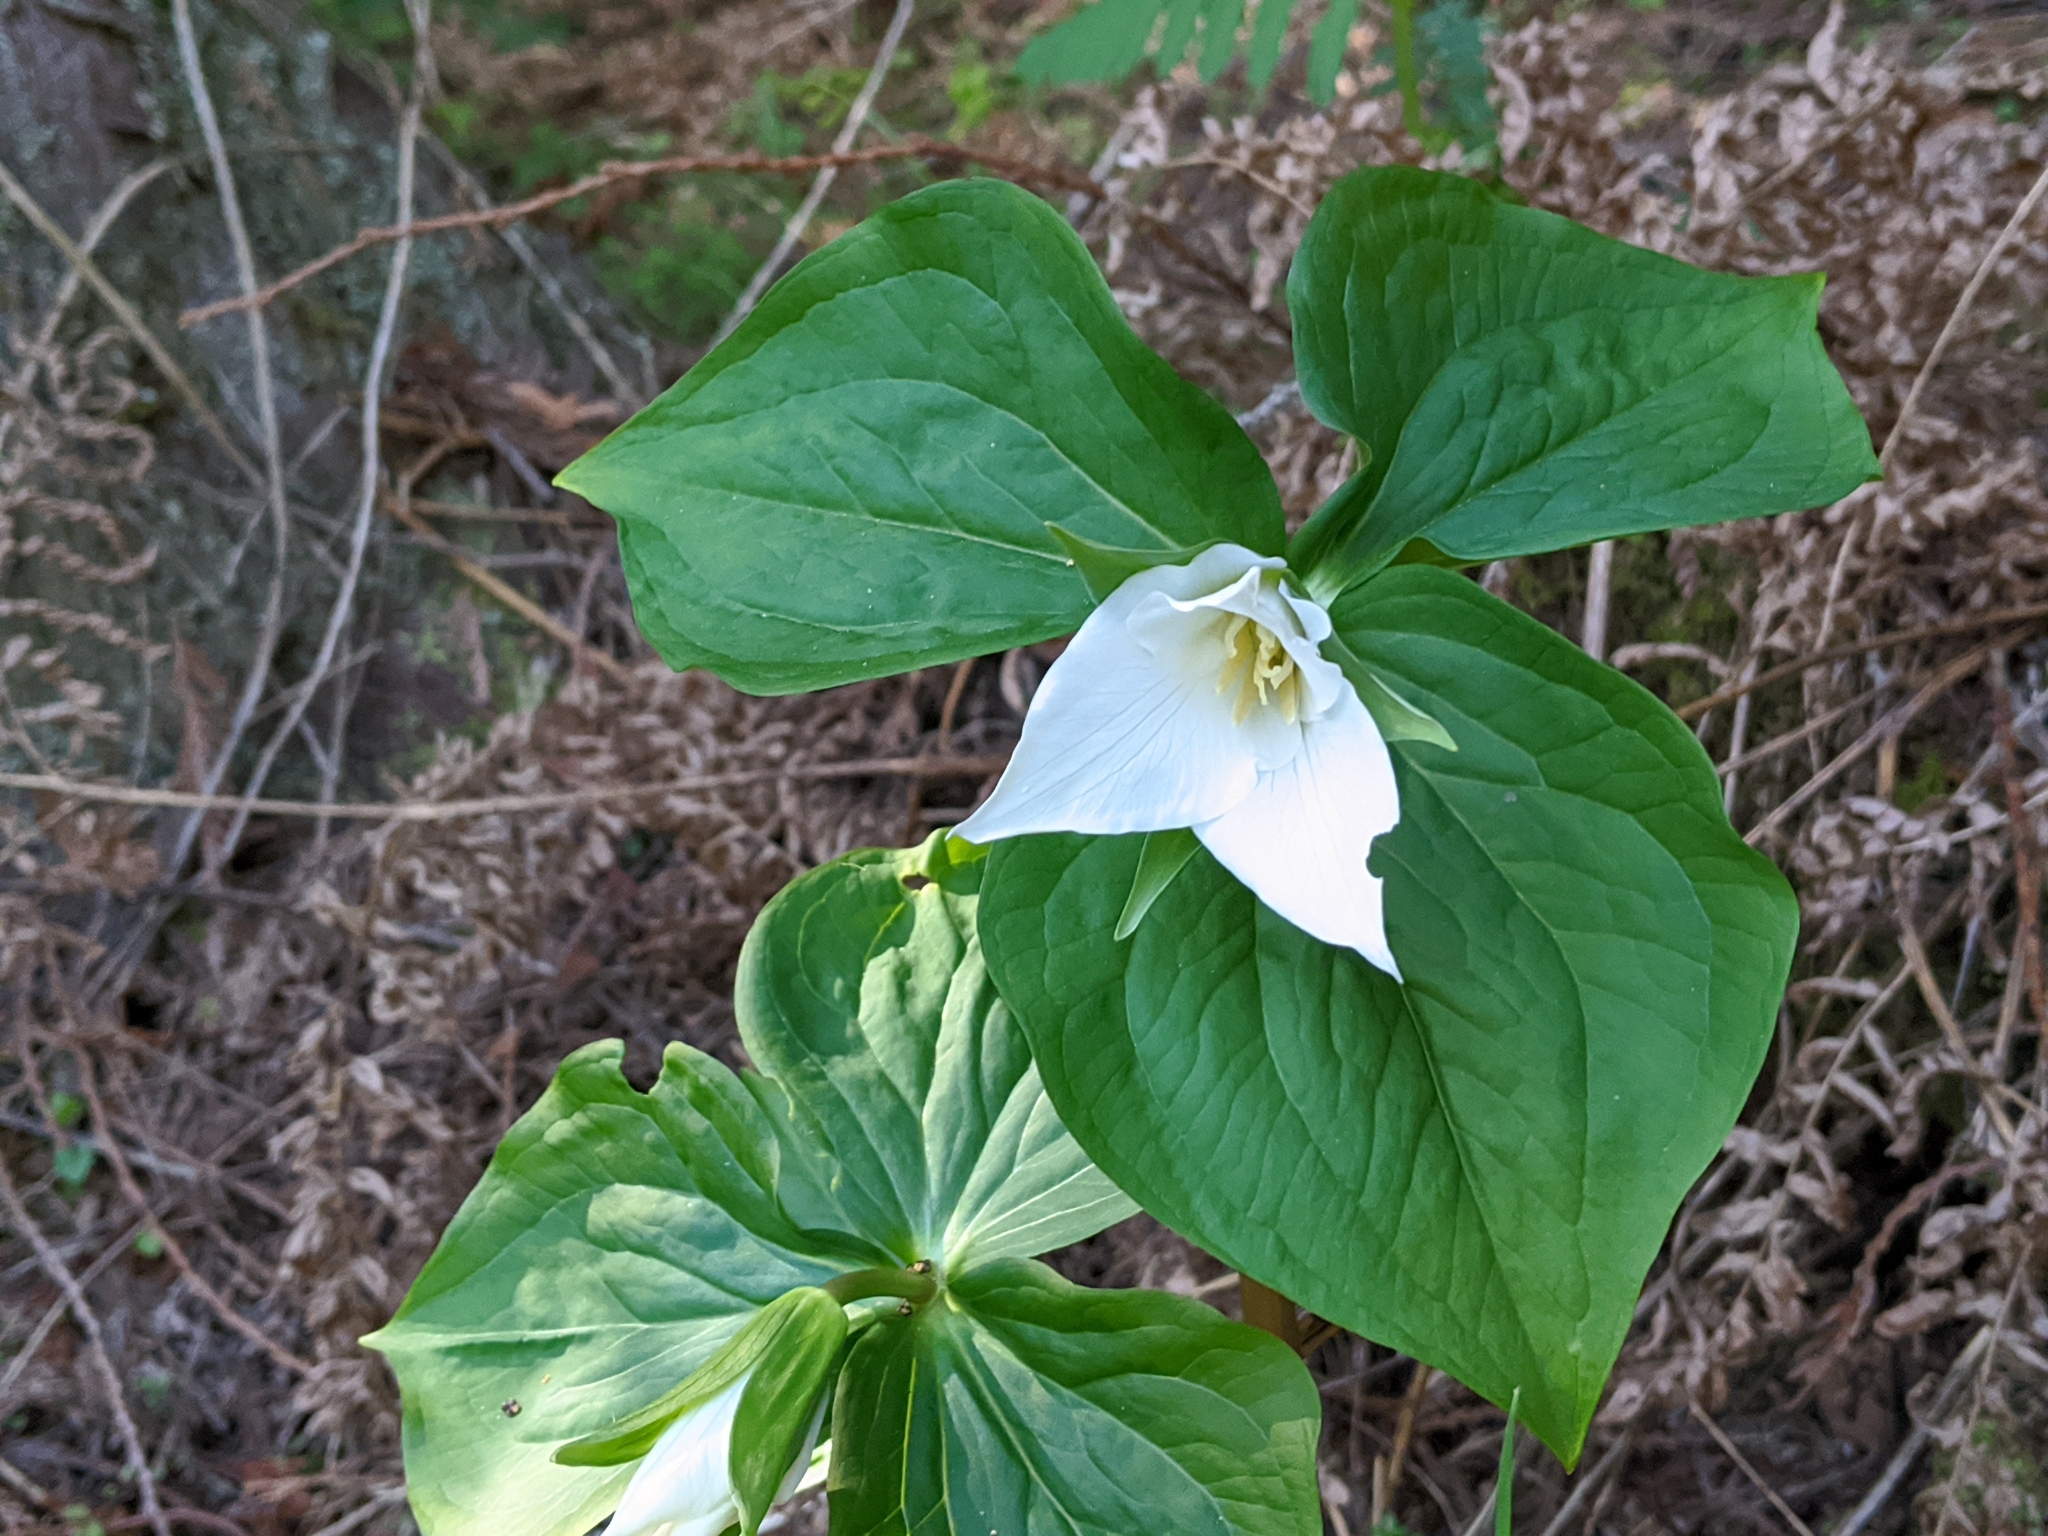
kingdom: Plantae
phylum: Tracheophyta
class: Liliopsida
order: Liliales
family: Melanthiaceae
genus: Trillium
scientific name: Trillium ovatum
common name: Pacific trillium
